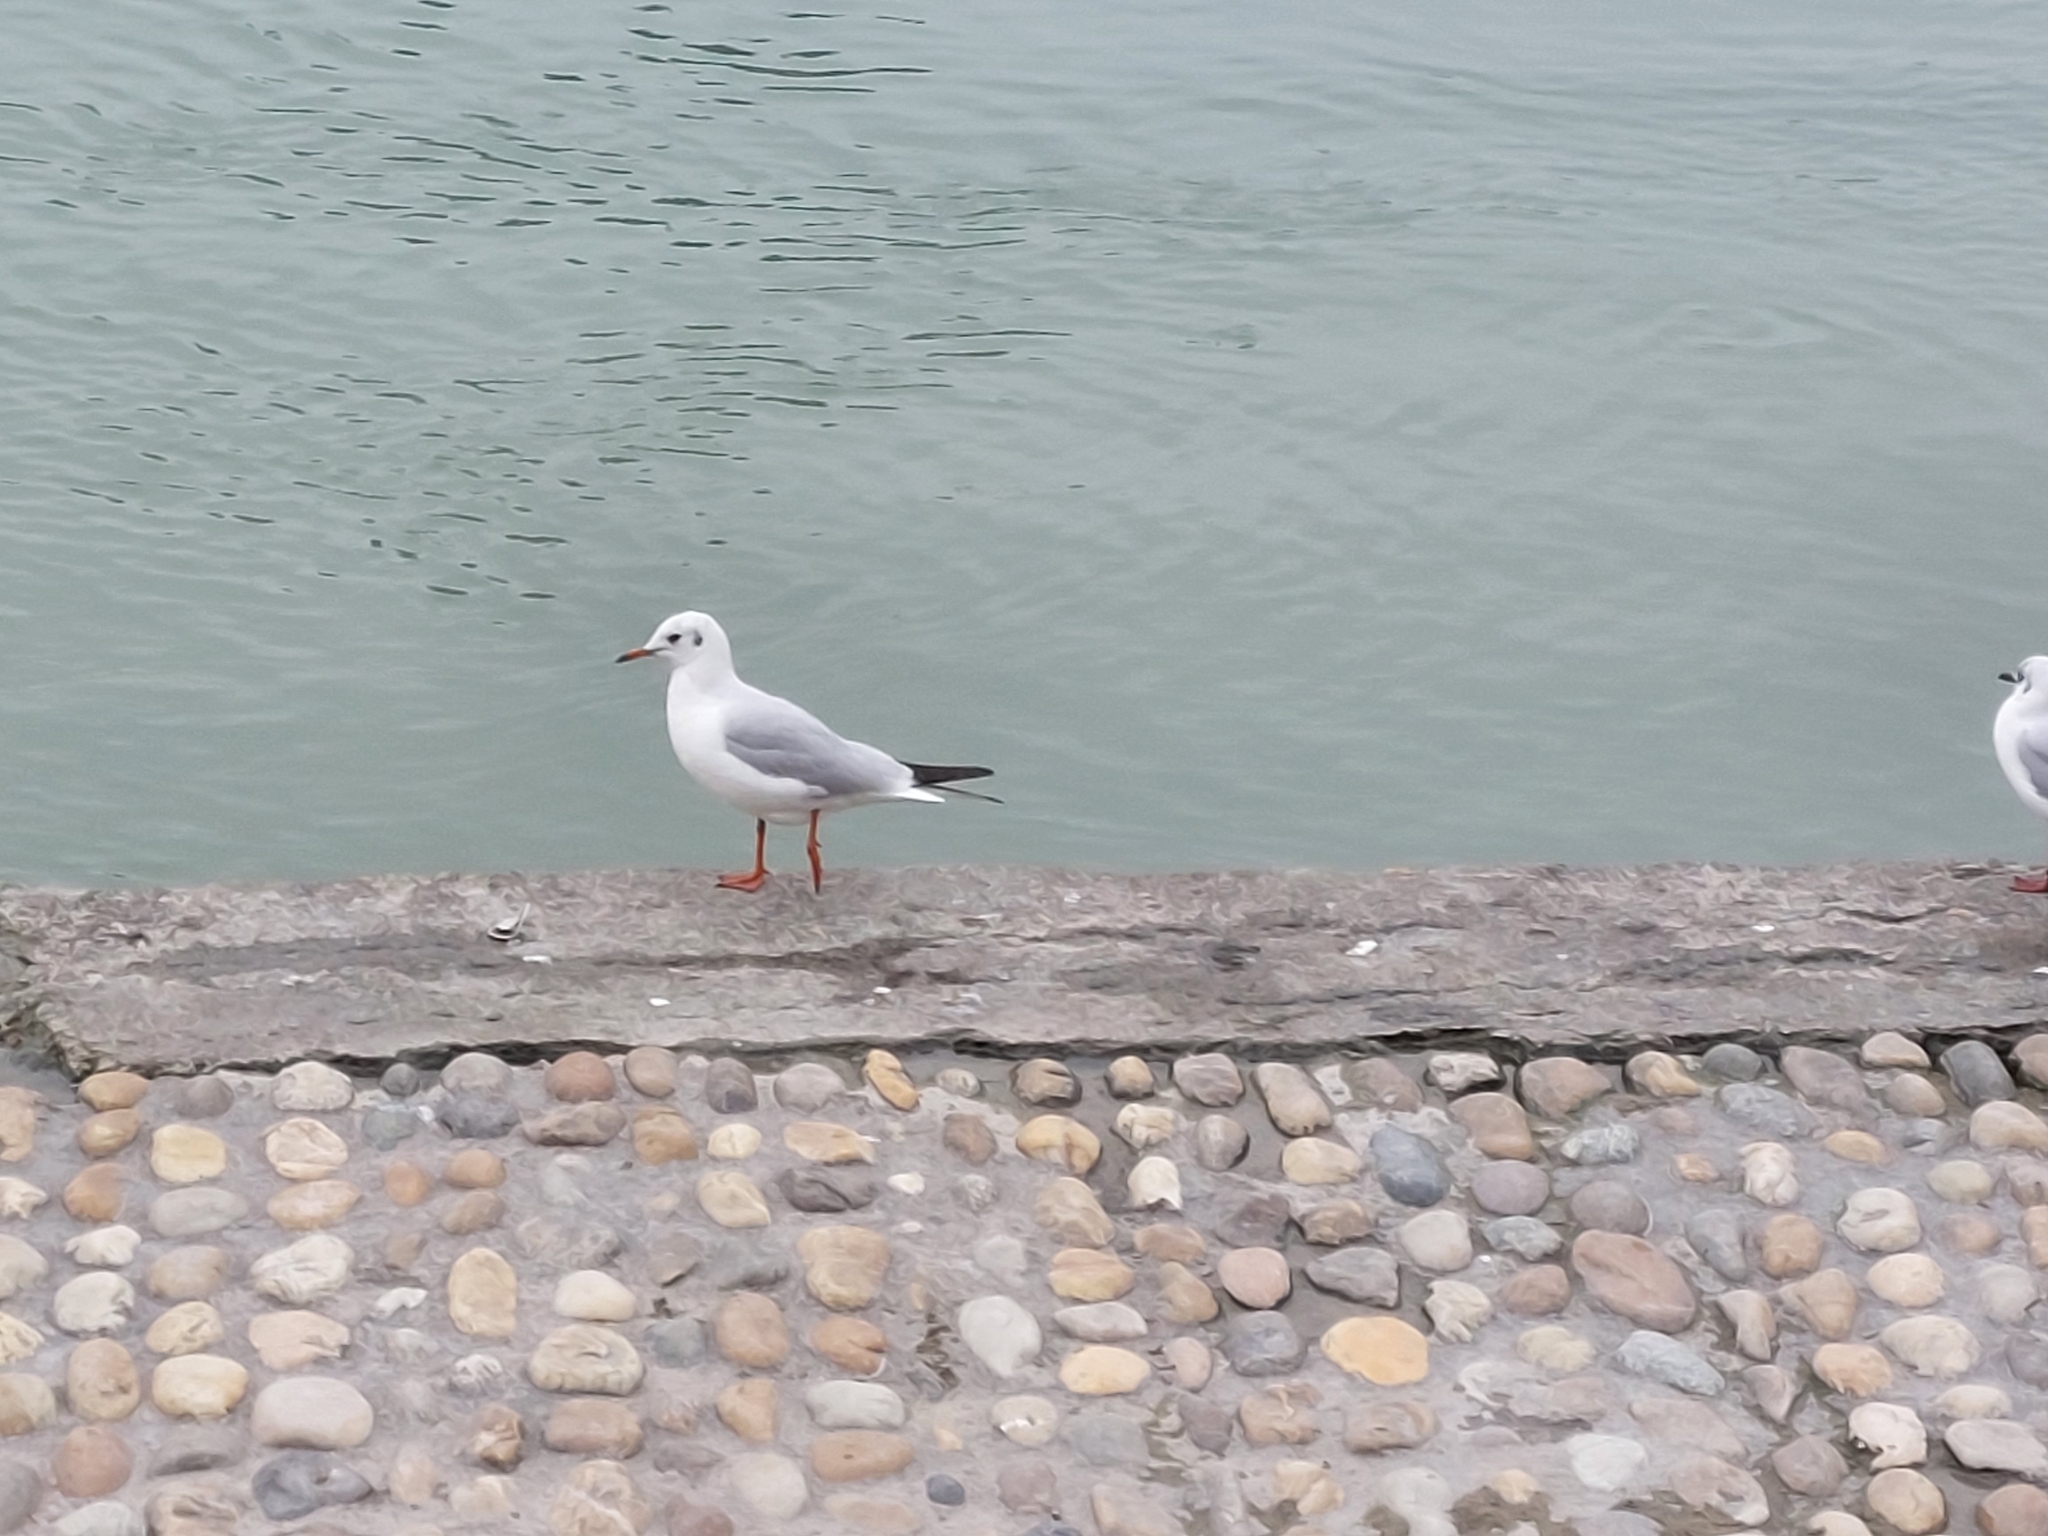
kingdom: Animalia
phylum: Chordata
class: Aves
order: Charadriiformes
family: Laridae
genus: Chroicocephalus
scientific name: Chroicocephalus ridibundus
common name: Black-headed gull
